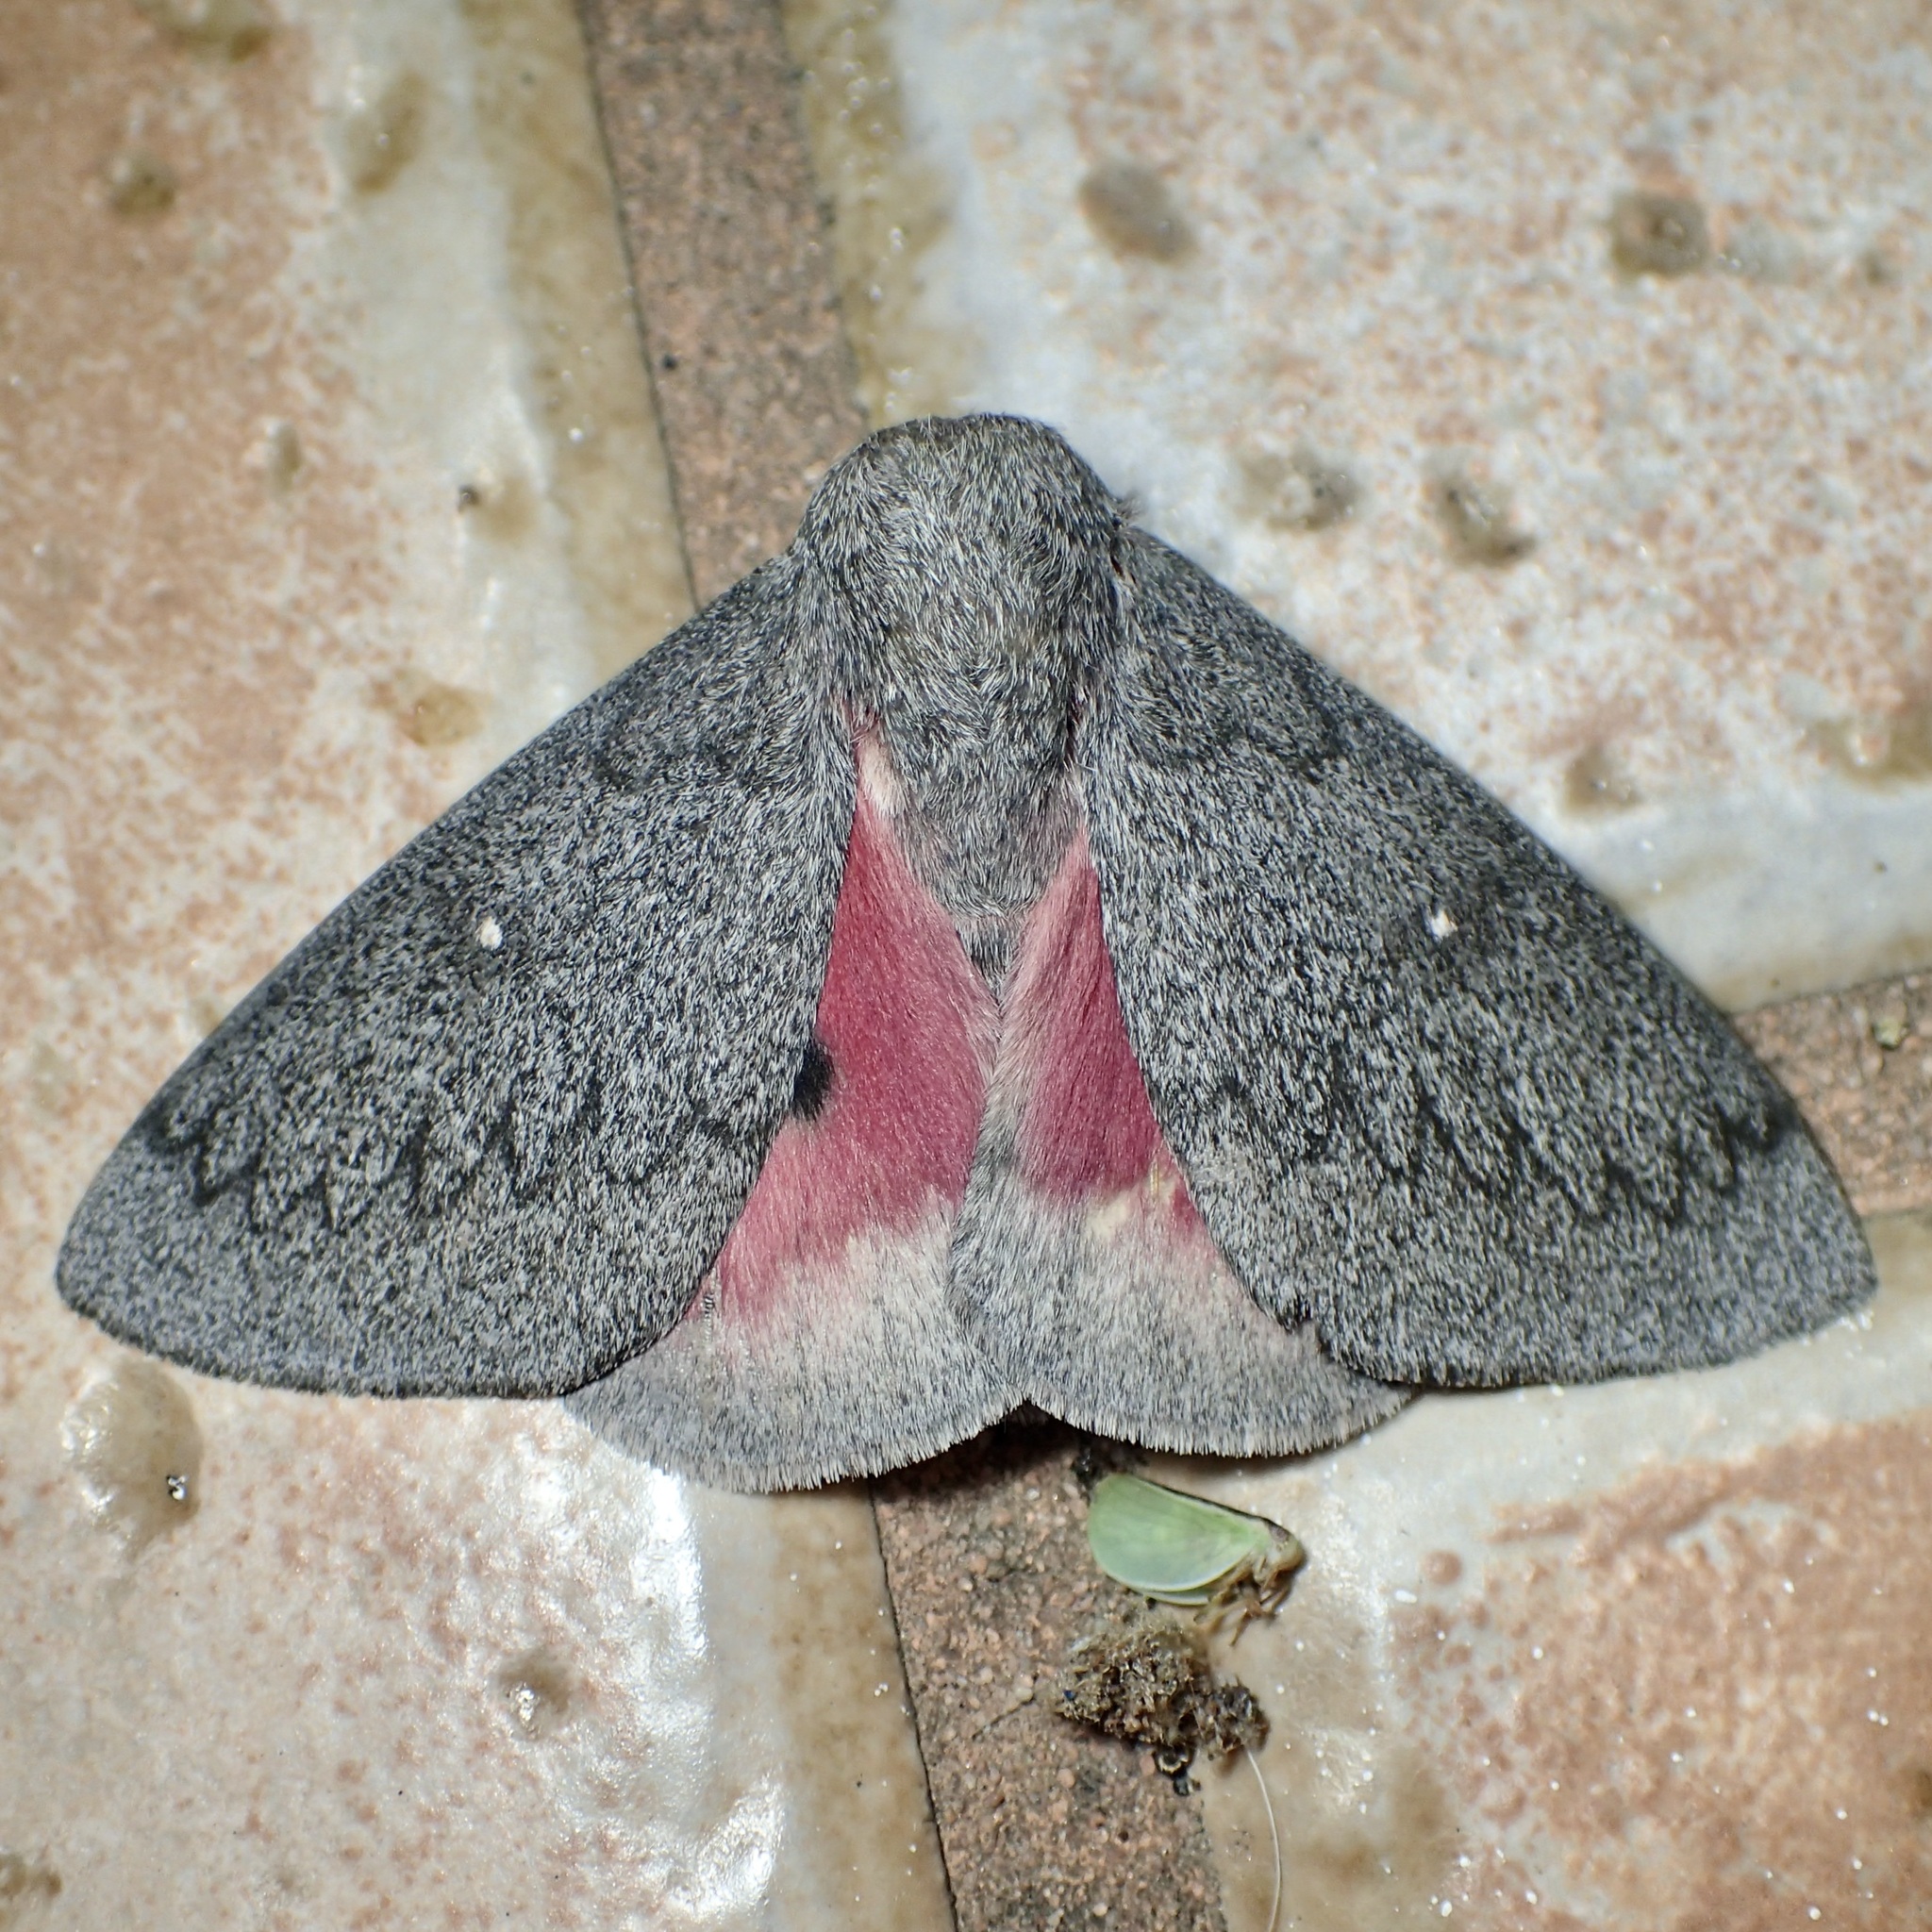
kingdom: Animalia
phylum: Arthropoda
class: Insecta
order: Lepidoptera
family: Saturniidae
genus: Syssphinx
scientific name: Syssphinx hubbardi
